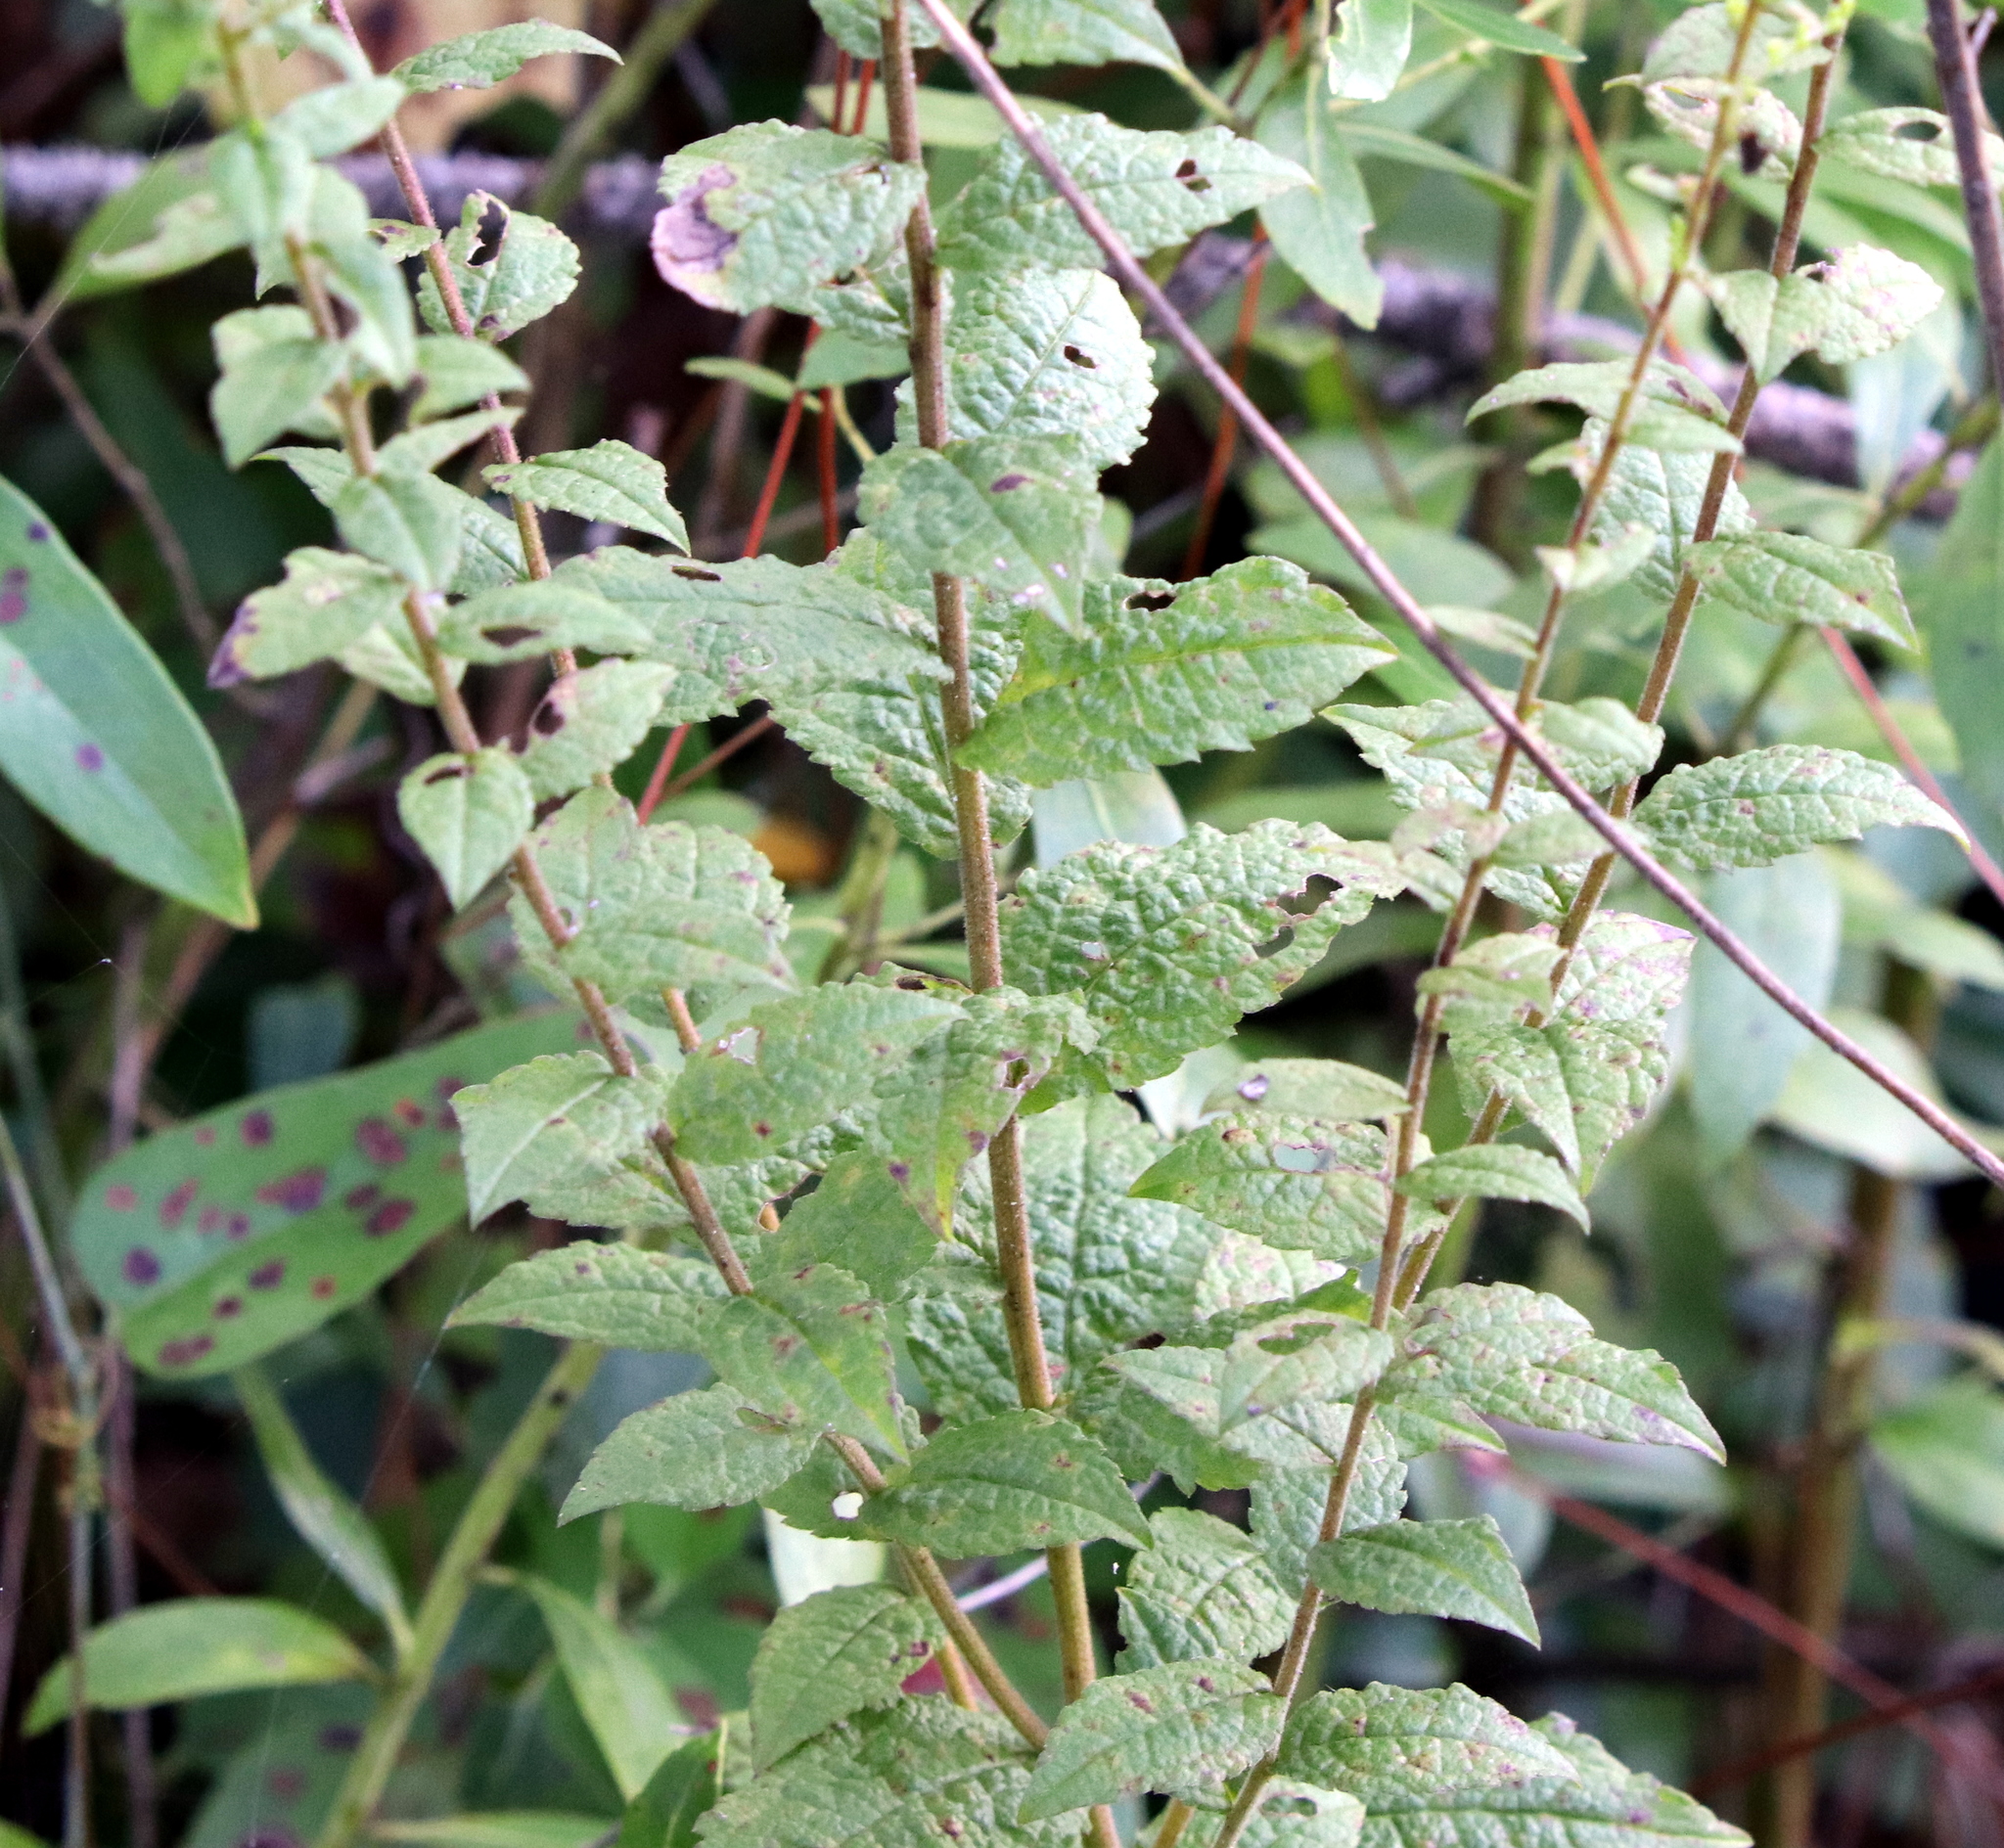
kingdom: Plantae
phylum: Tracheophyta
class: Magnoliopsida
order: Asterales
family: Asteraceae
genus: Solidago
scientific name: Solidago rugosa
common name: Rough-stemmed goldenrod
